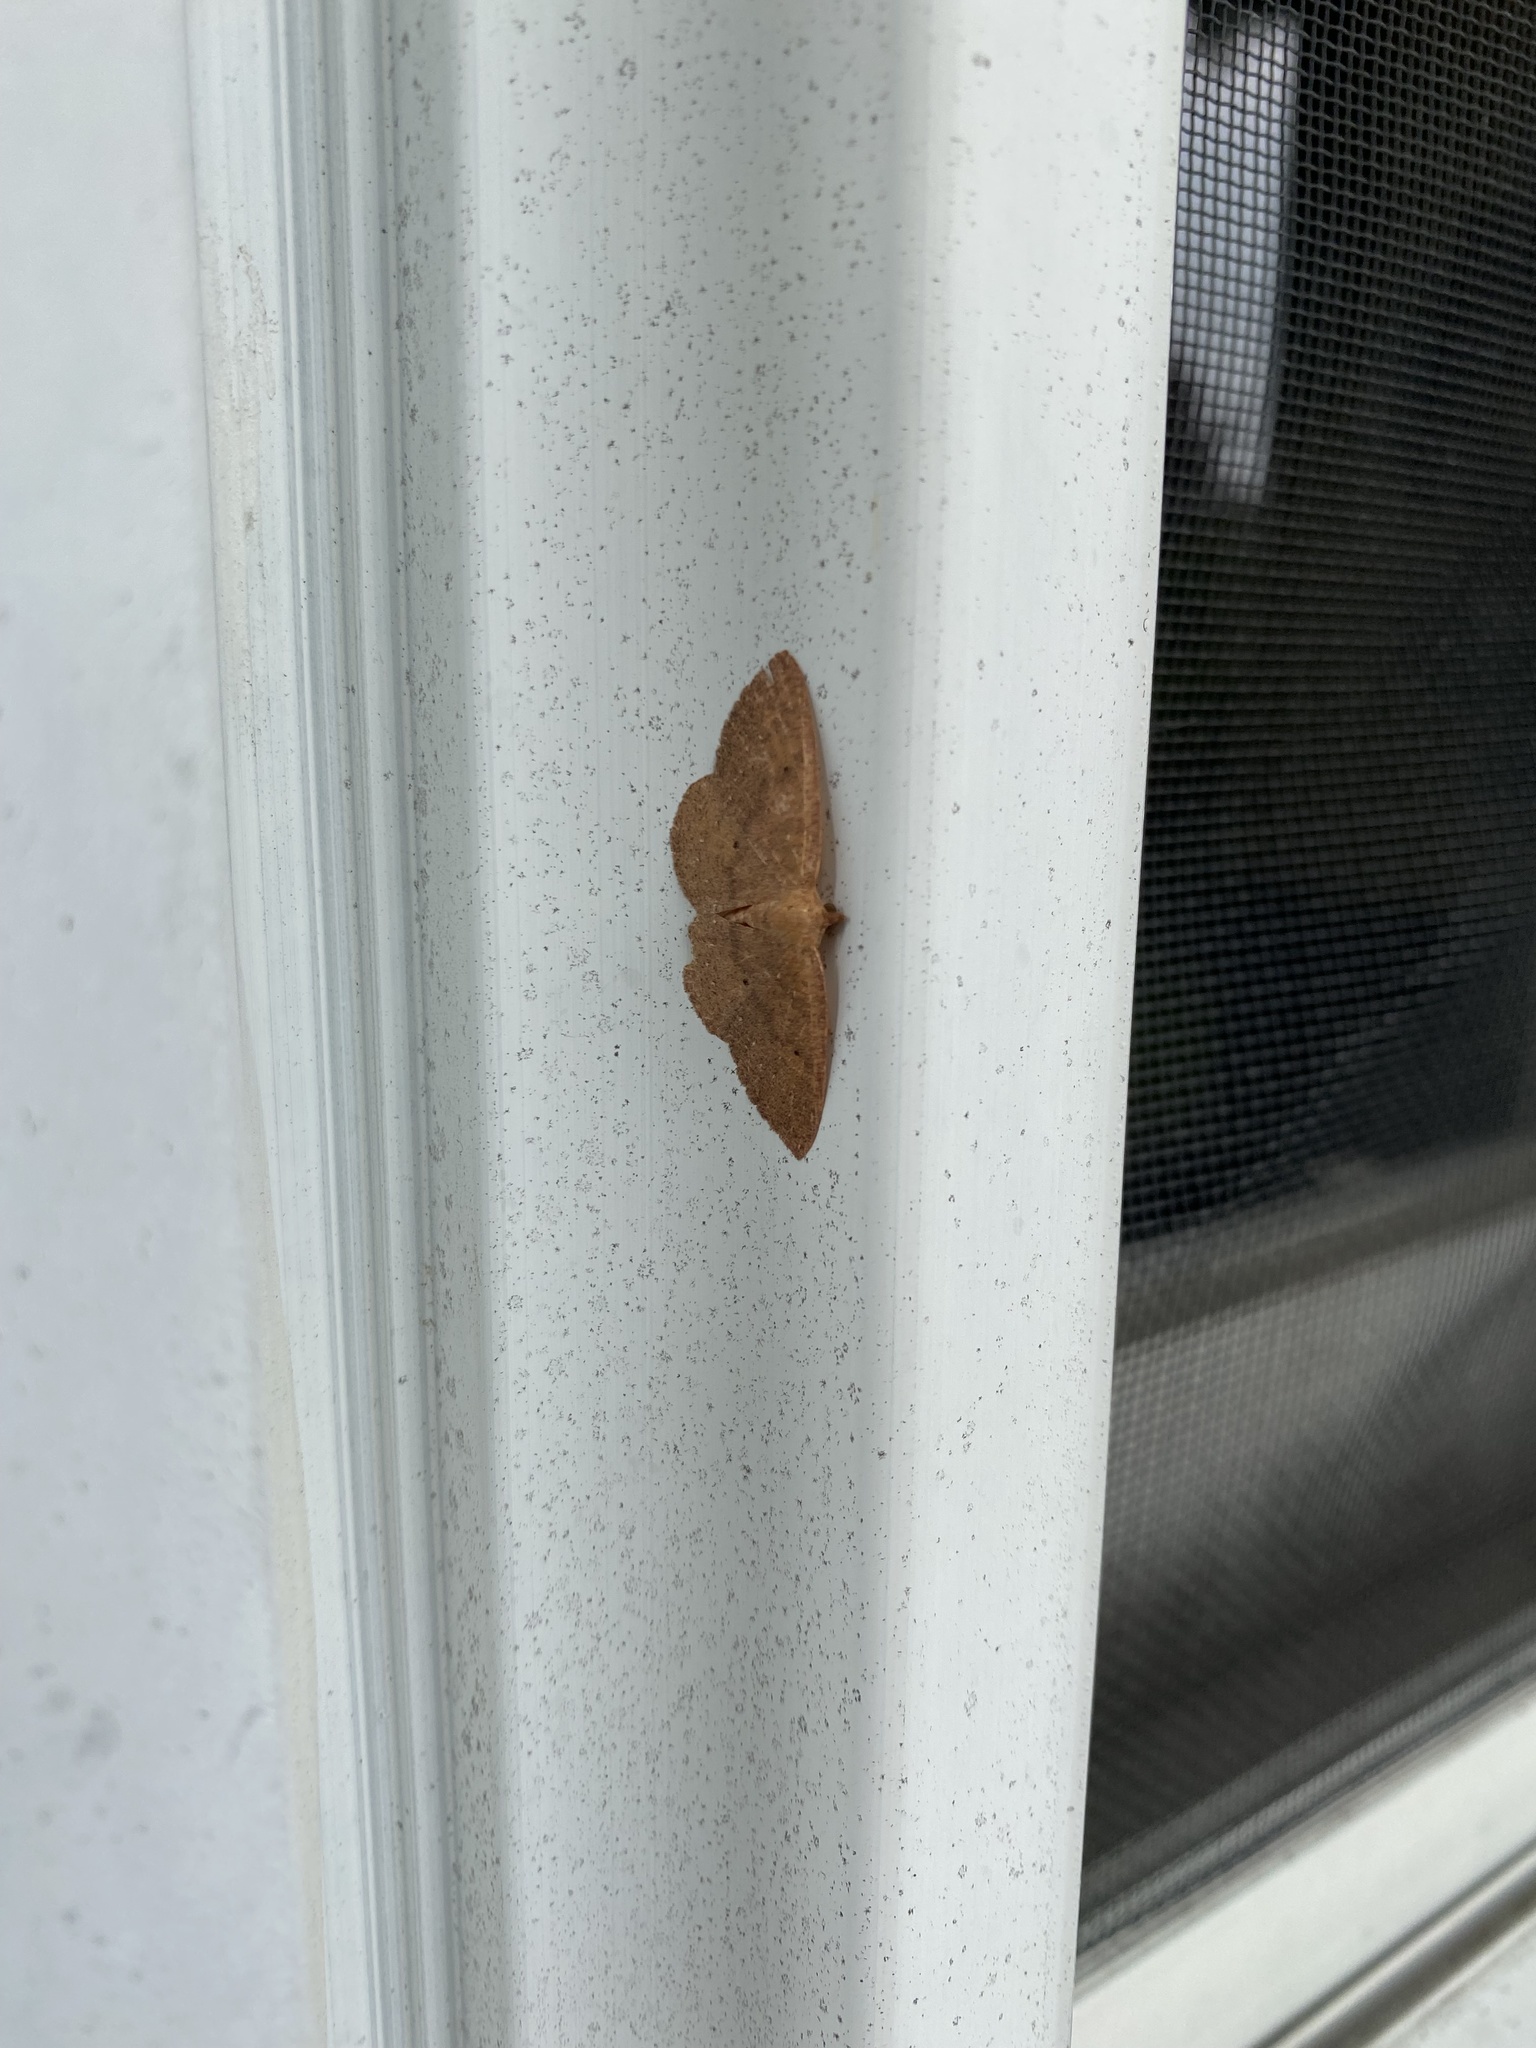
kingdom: Animalia
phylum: Arthropoda
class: Insecta
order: Lepidoptera
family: Geometridae
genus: Ilexia
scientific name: Ilexia intractata
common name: Black-dotted ruddy moth
